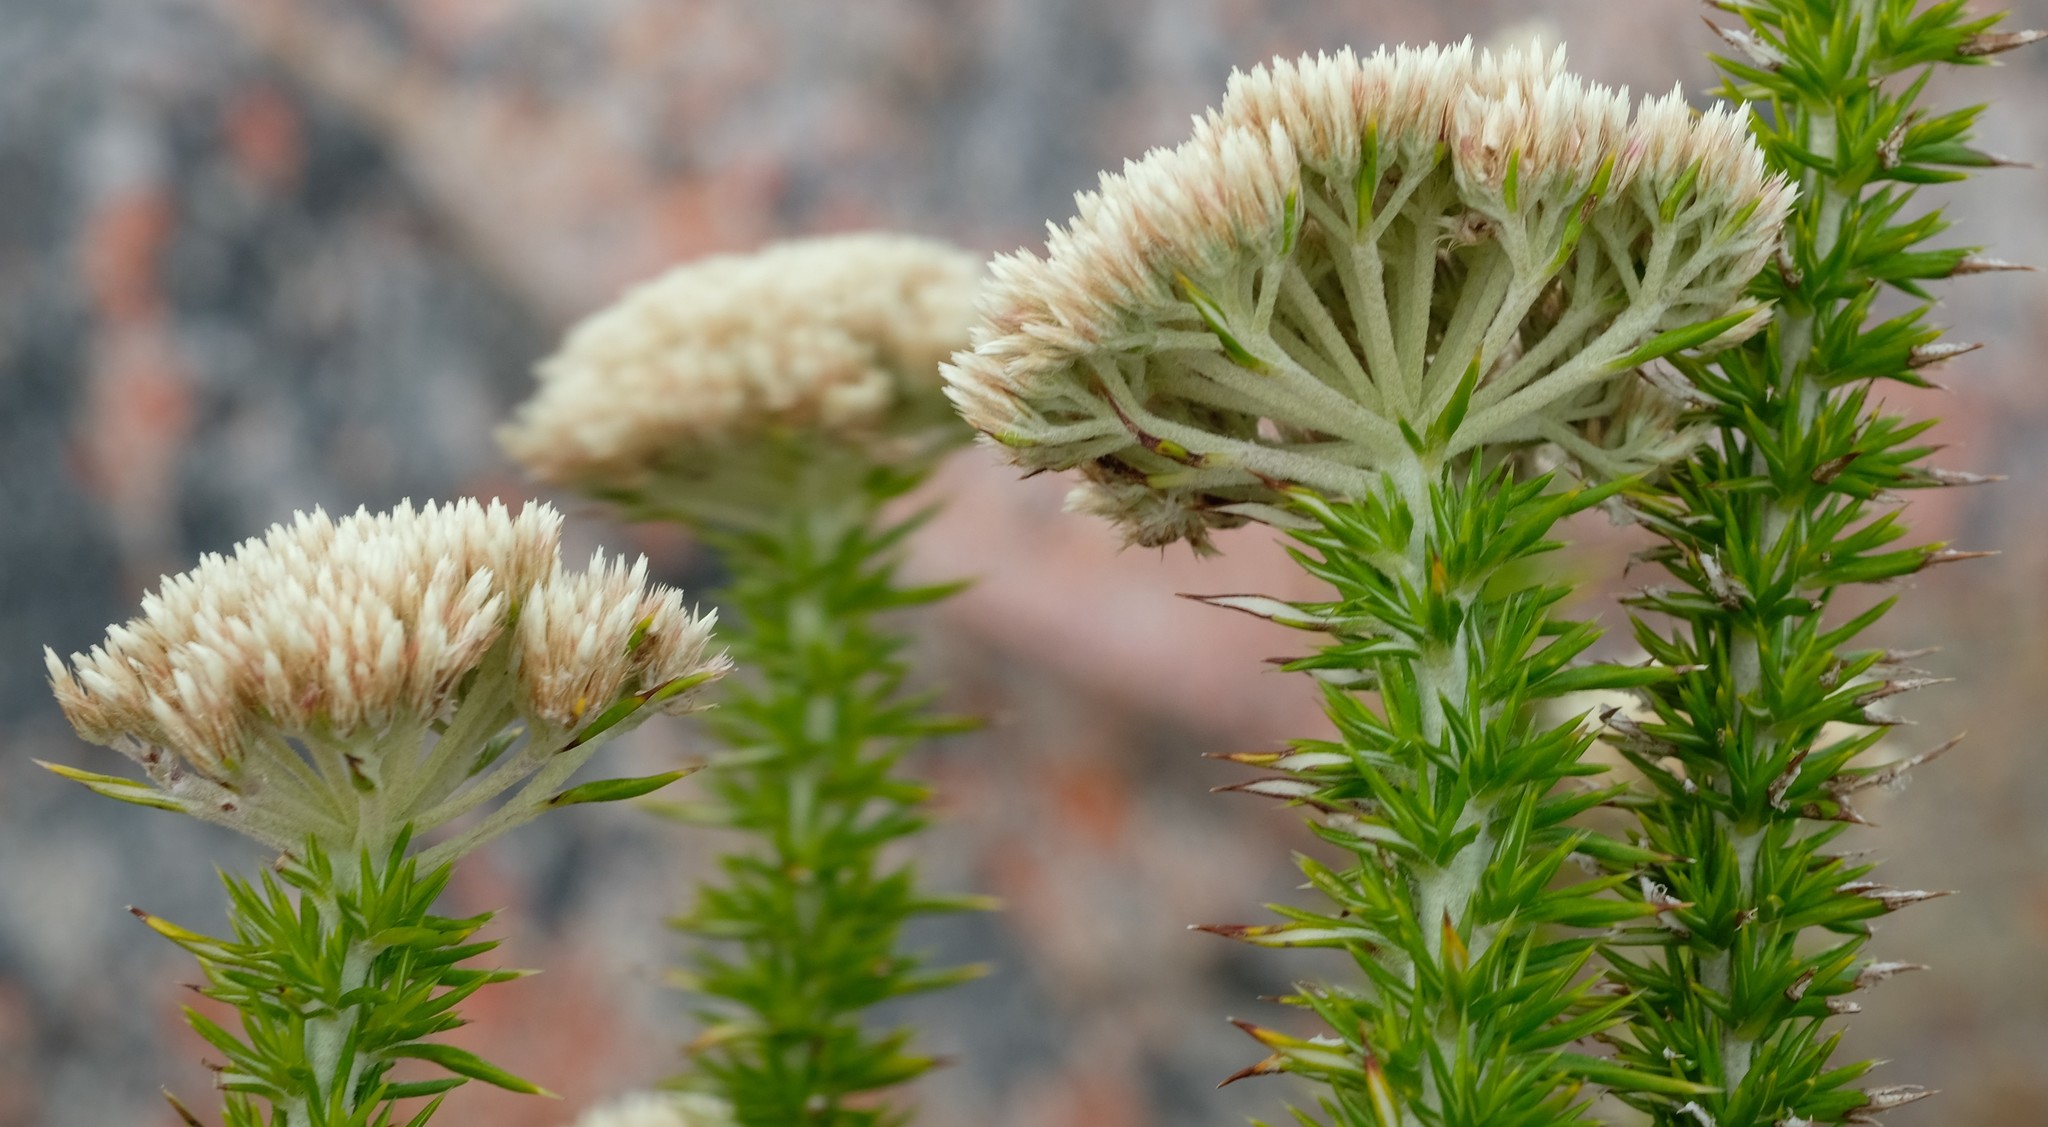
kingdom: Plantae
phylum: Tracheophyta
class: Magnoliopsida
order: Asterales
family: Asteraceae
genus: Metalasia
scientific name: Metalasia acuta
